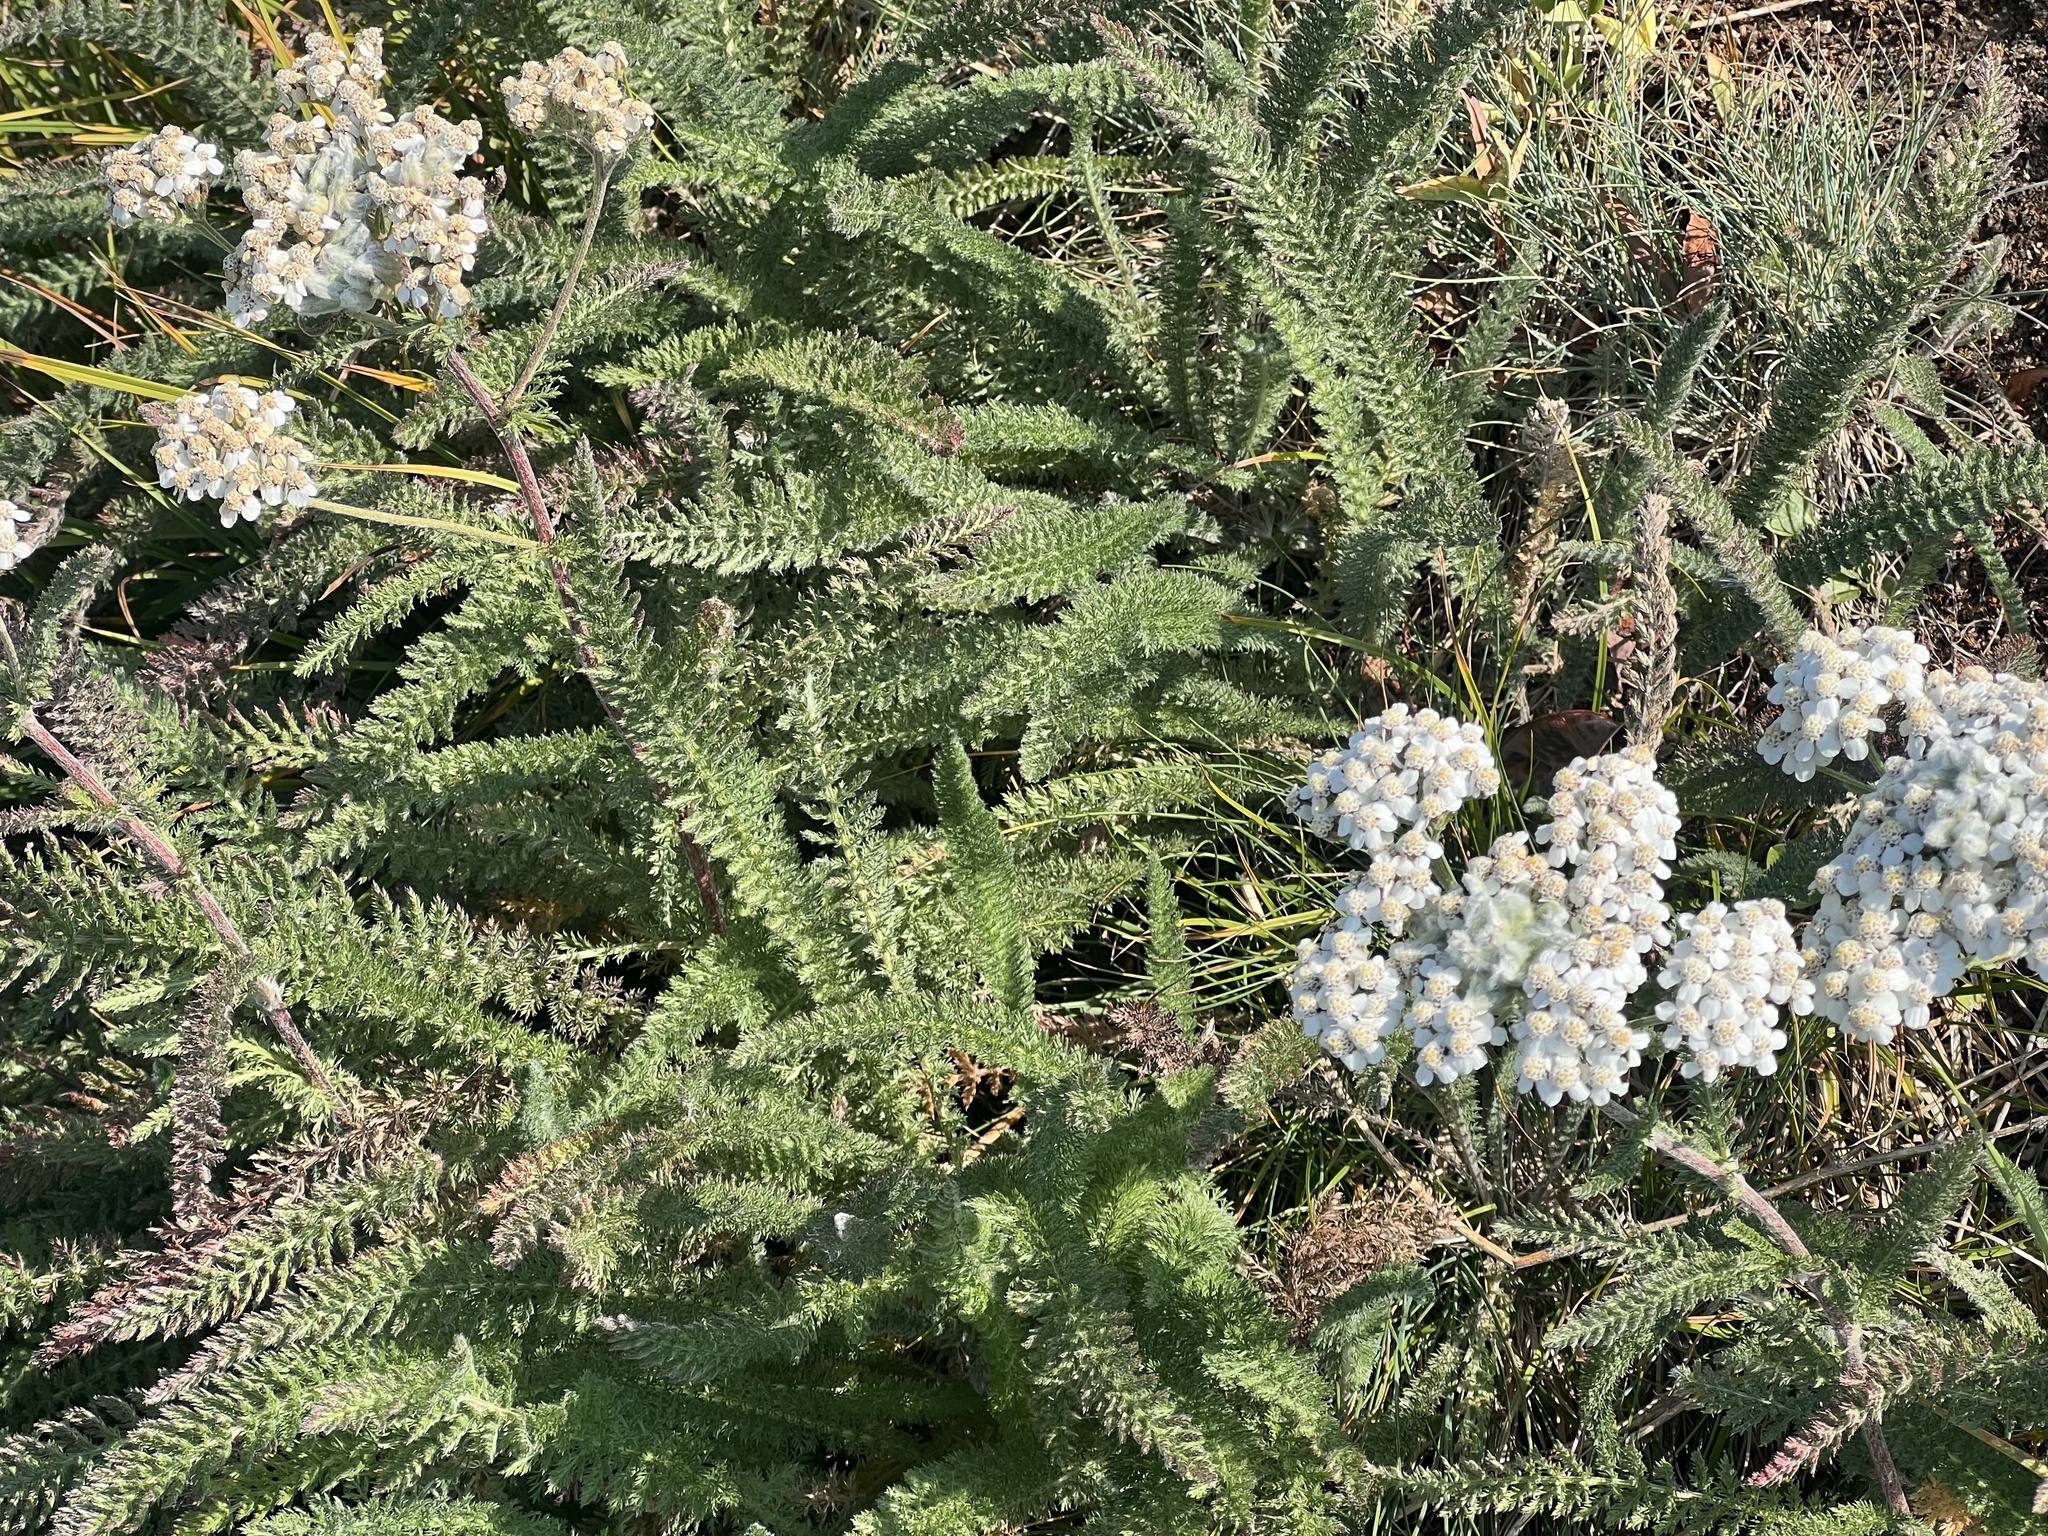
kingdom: Plantae
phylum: Tracheophyta
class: Magnoliopsida
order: Asterales
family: Asteraceae
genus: Achillea
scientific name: Achillea millefolium
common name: Yarrow
